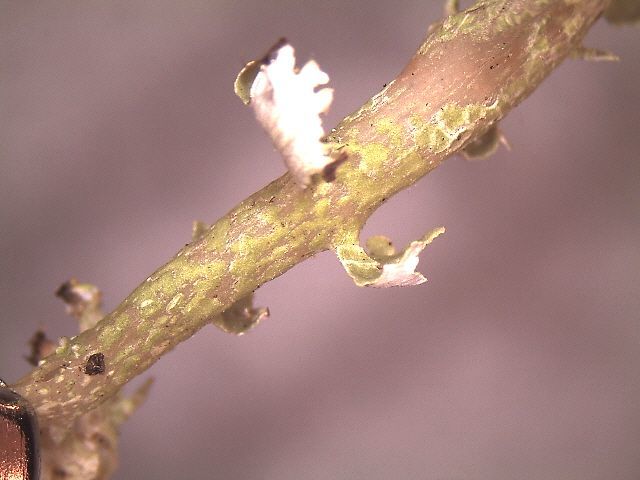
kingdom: Fungi
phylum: Ascomycota
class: Lecanoromycetes
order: Lecanorales
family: Cladoniaceae
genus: Cladonia
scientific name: Cladonia scabriuscula
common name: Mealy forked clad lichen
